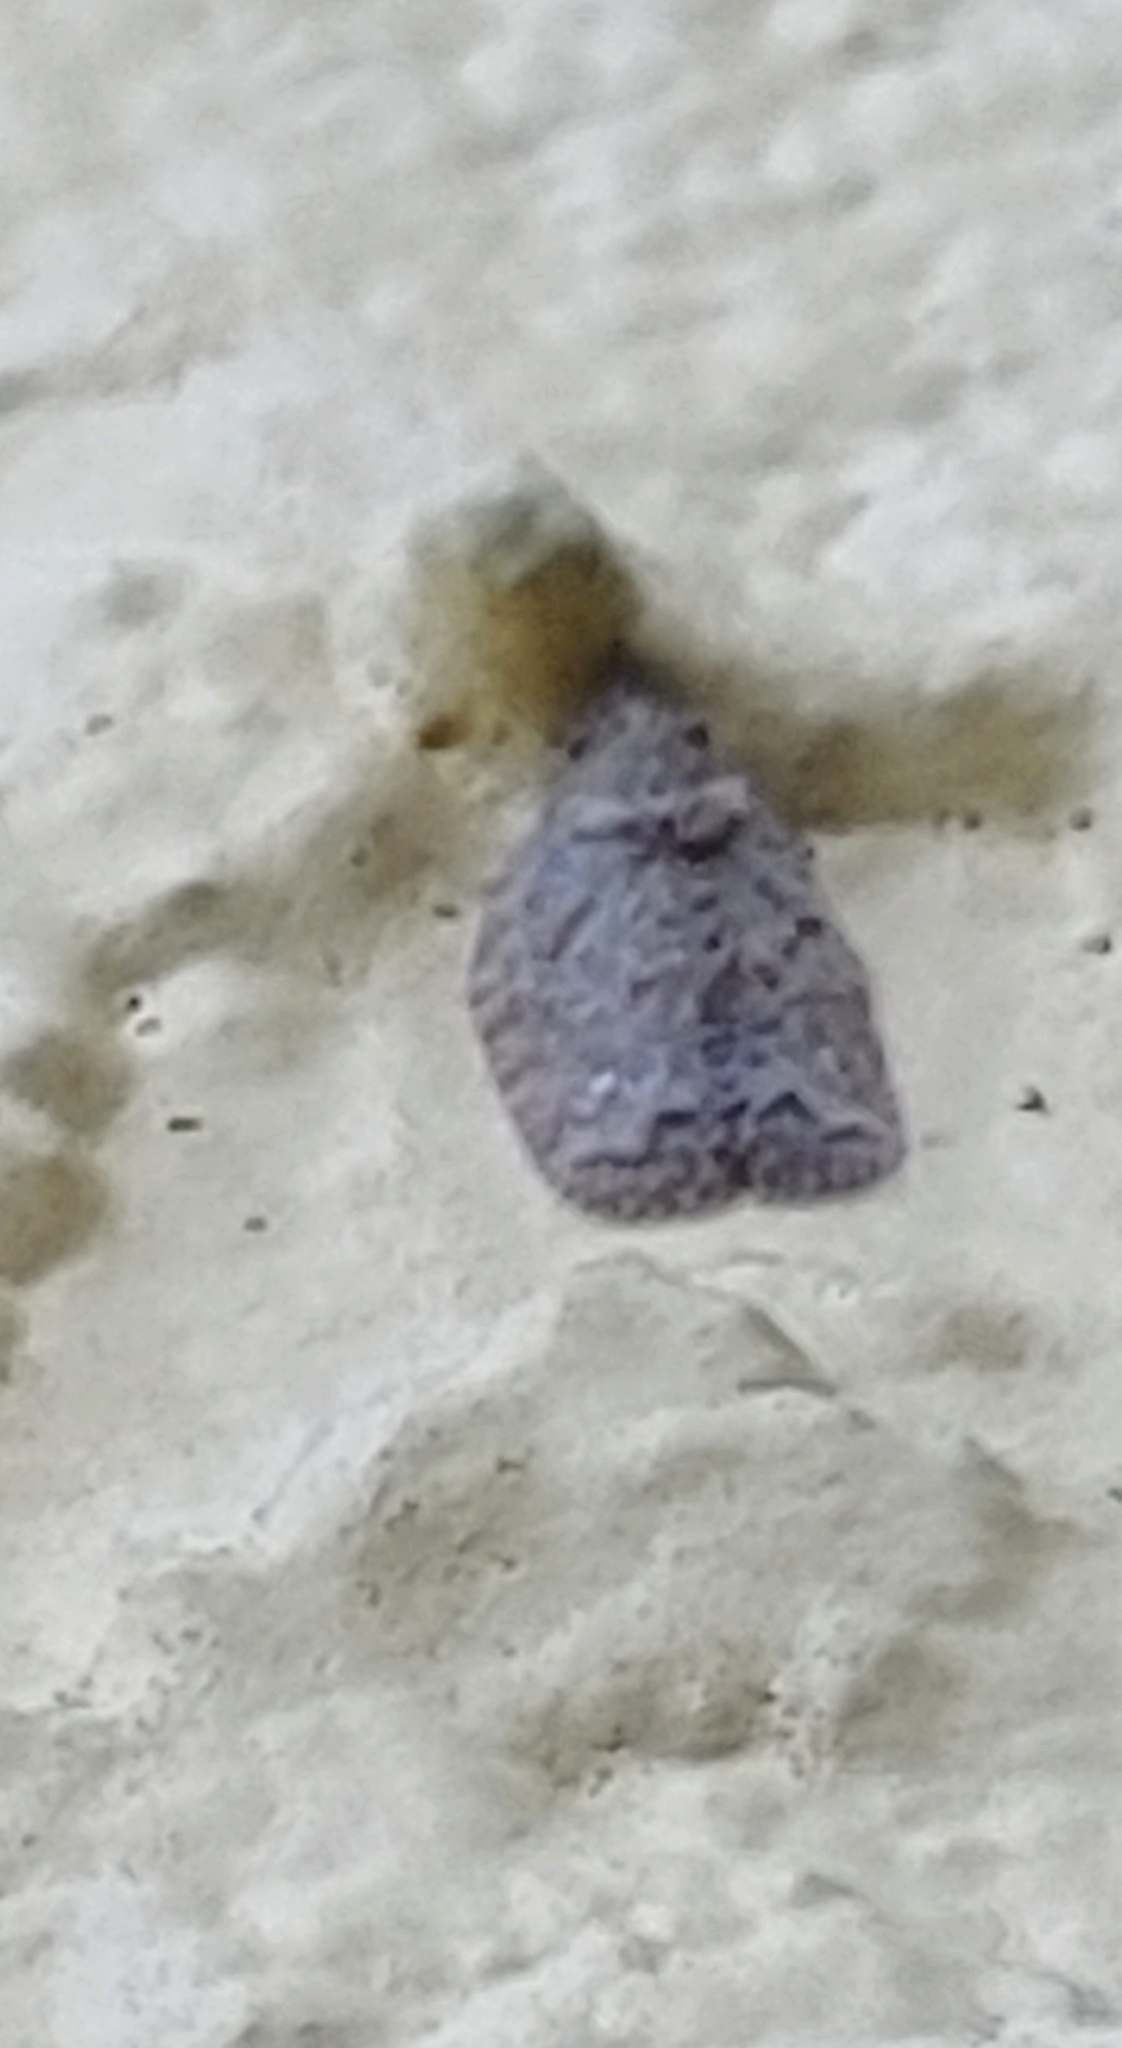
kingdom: Animalia
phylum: Arthropoda
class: Insecta
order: Hemiptera
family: Flatidae
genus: Flatoidinus
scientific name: Flatoidinus punctatus
